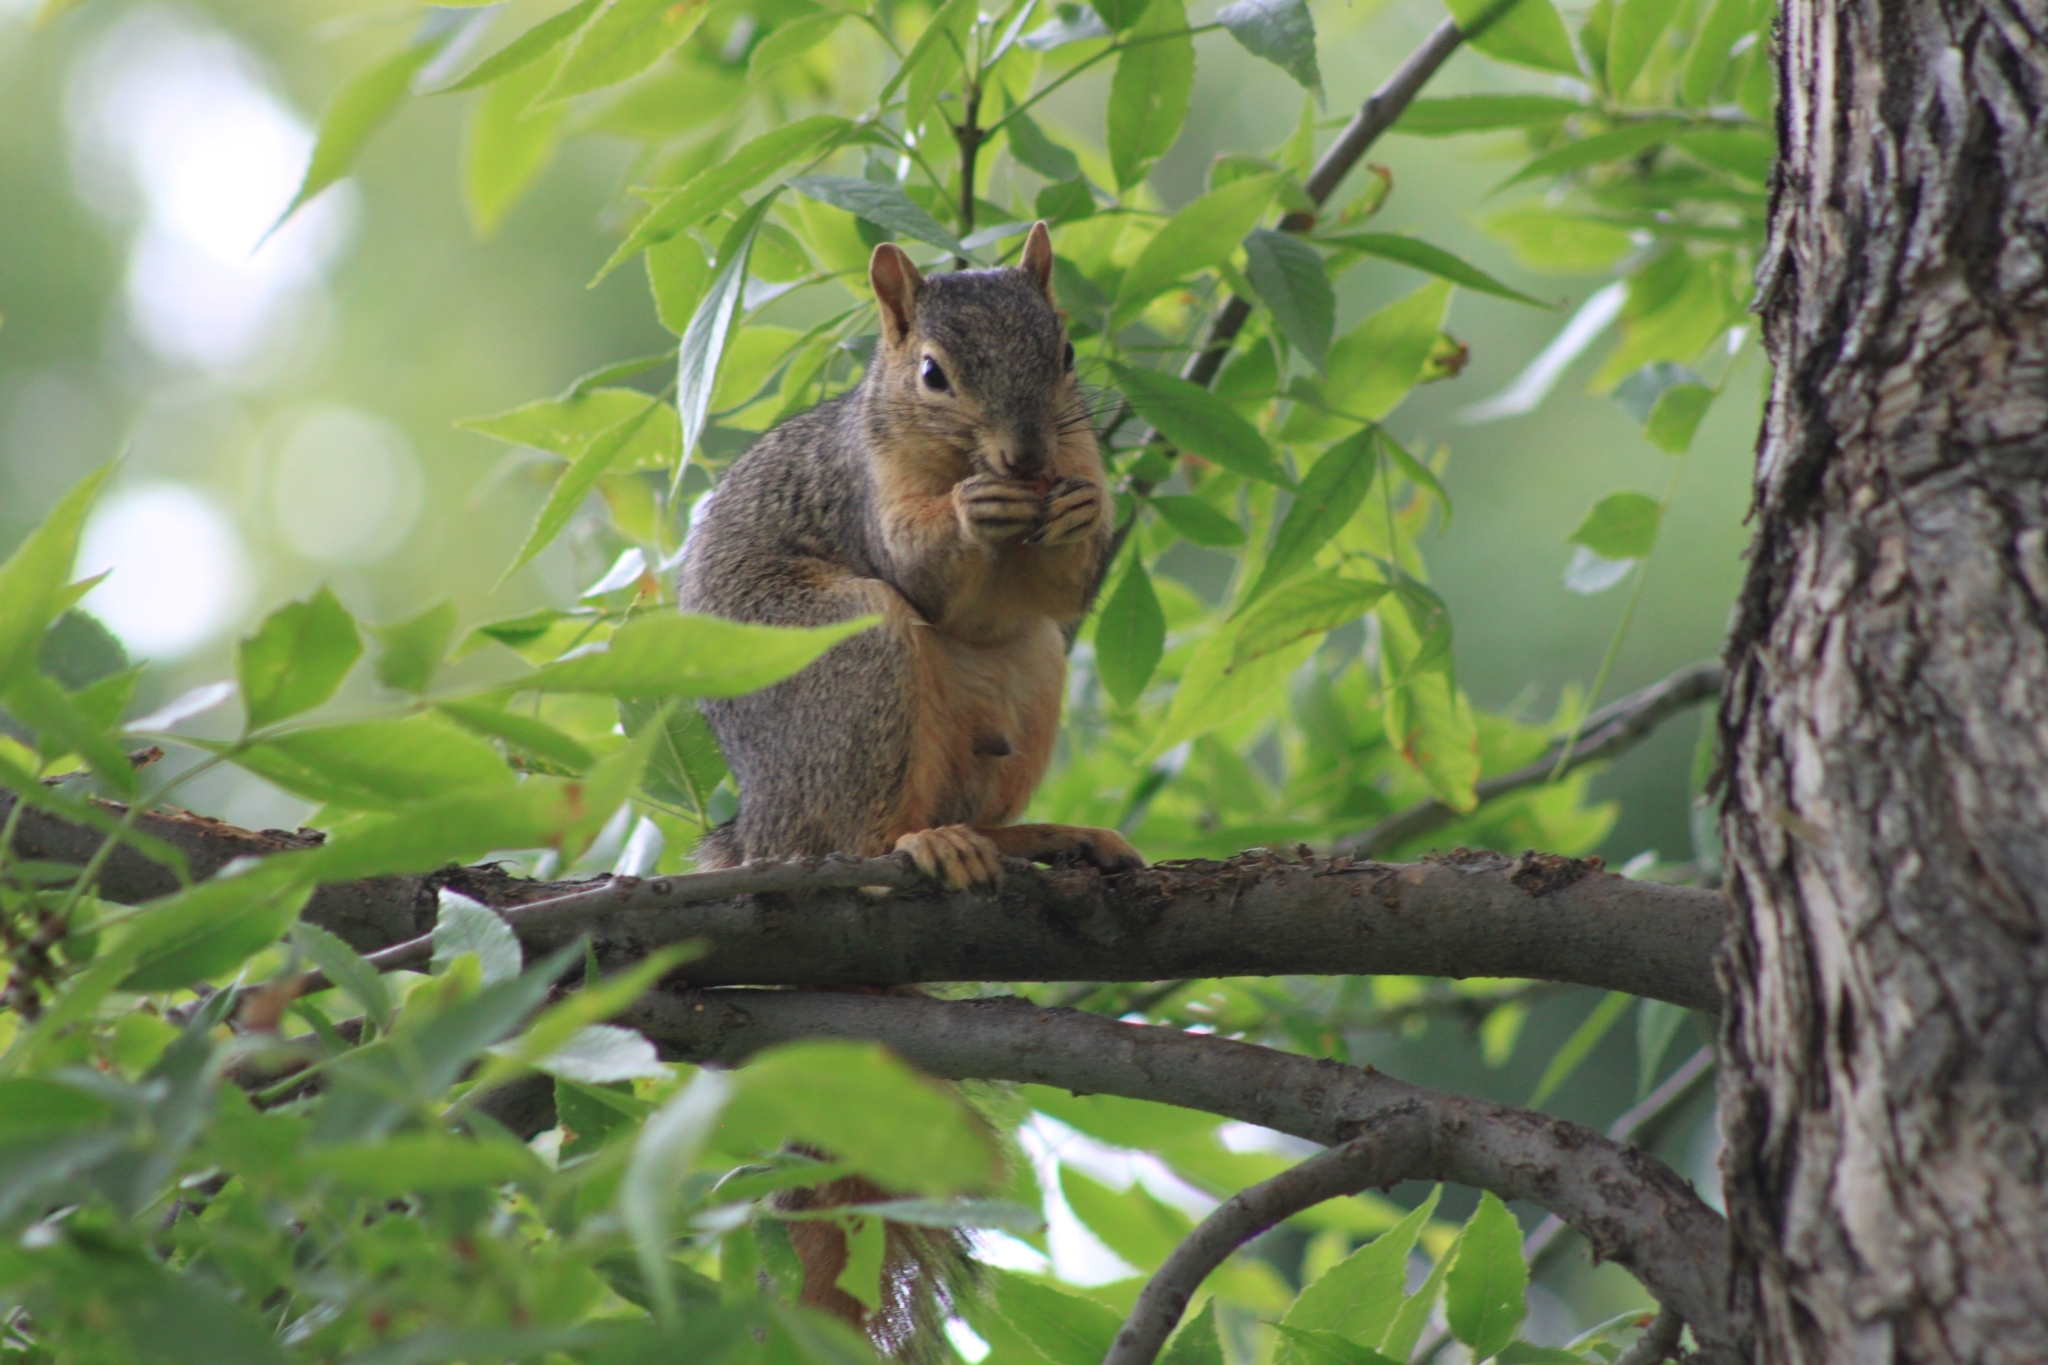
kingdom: Animalia
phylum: Chordata
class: Mammalia
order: Rodentia
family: Sciuridae
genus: Sciurus
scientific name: Sciurus niger
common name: Fox squirrel
